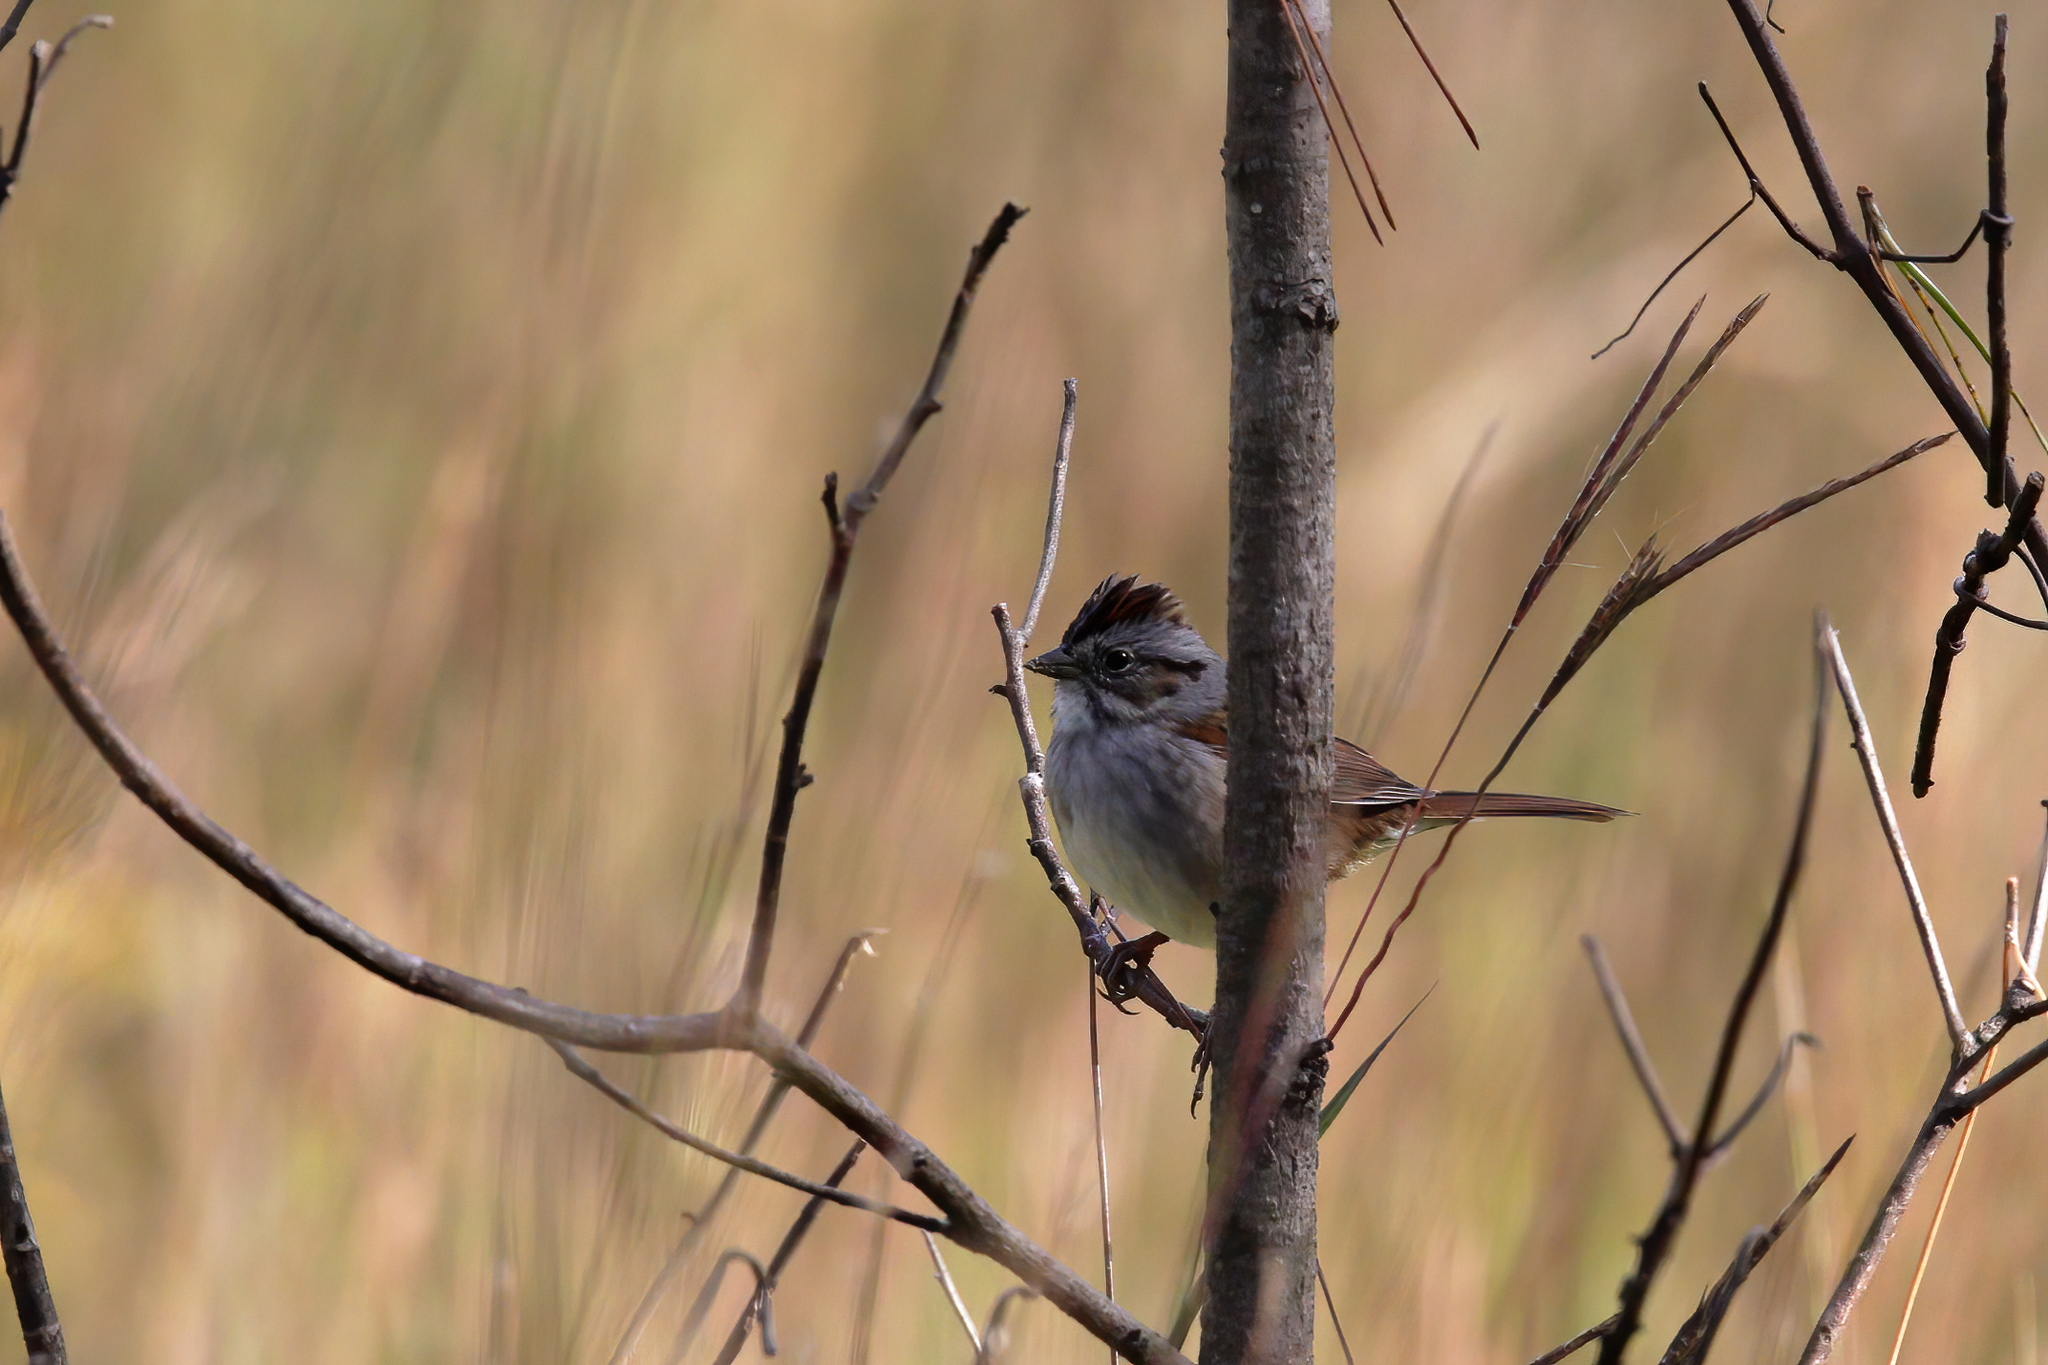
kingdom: Animalia
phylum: Chordata
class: Aves
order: Passeriformes
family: Passerellidae
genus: Melospiza
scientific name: Melospiza georgiana
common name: Swamp sparrow
